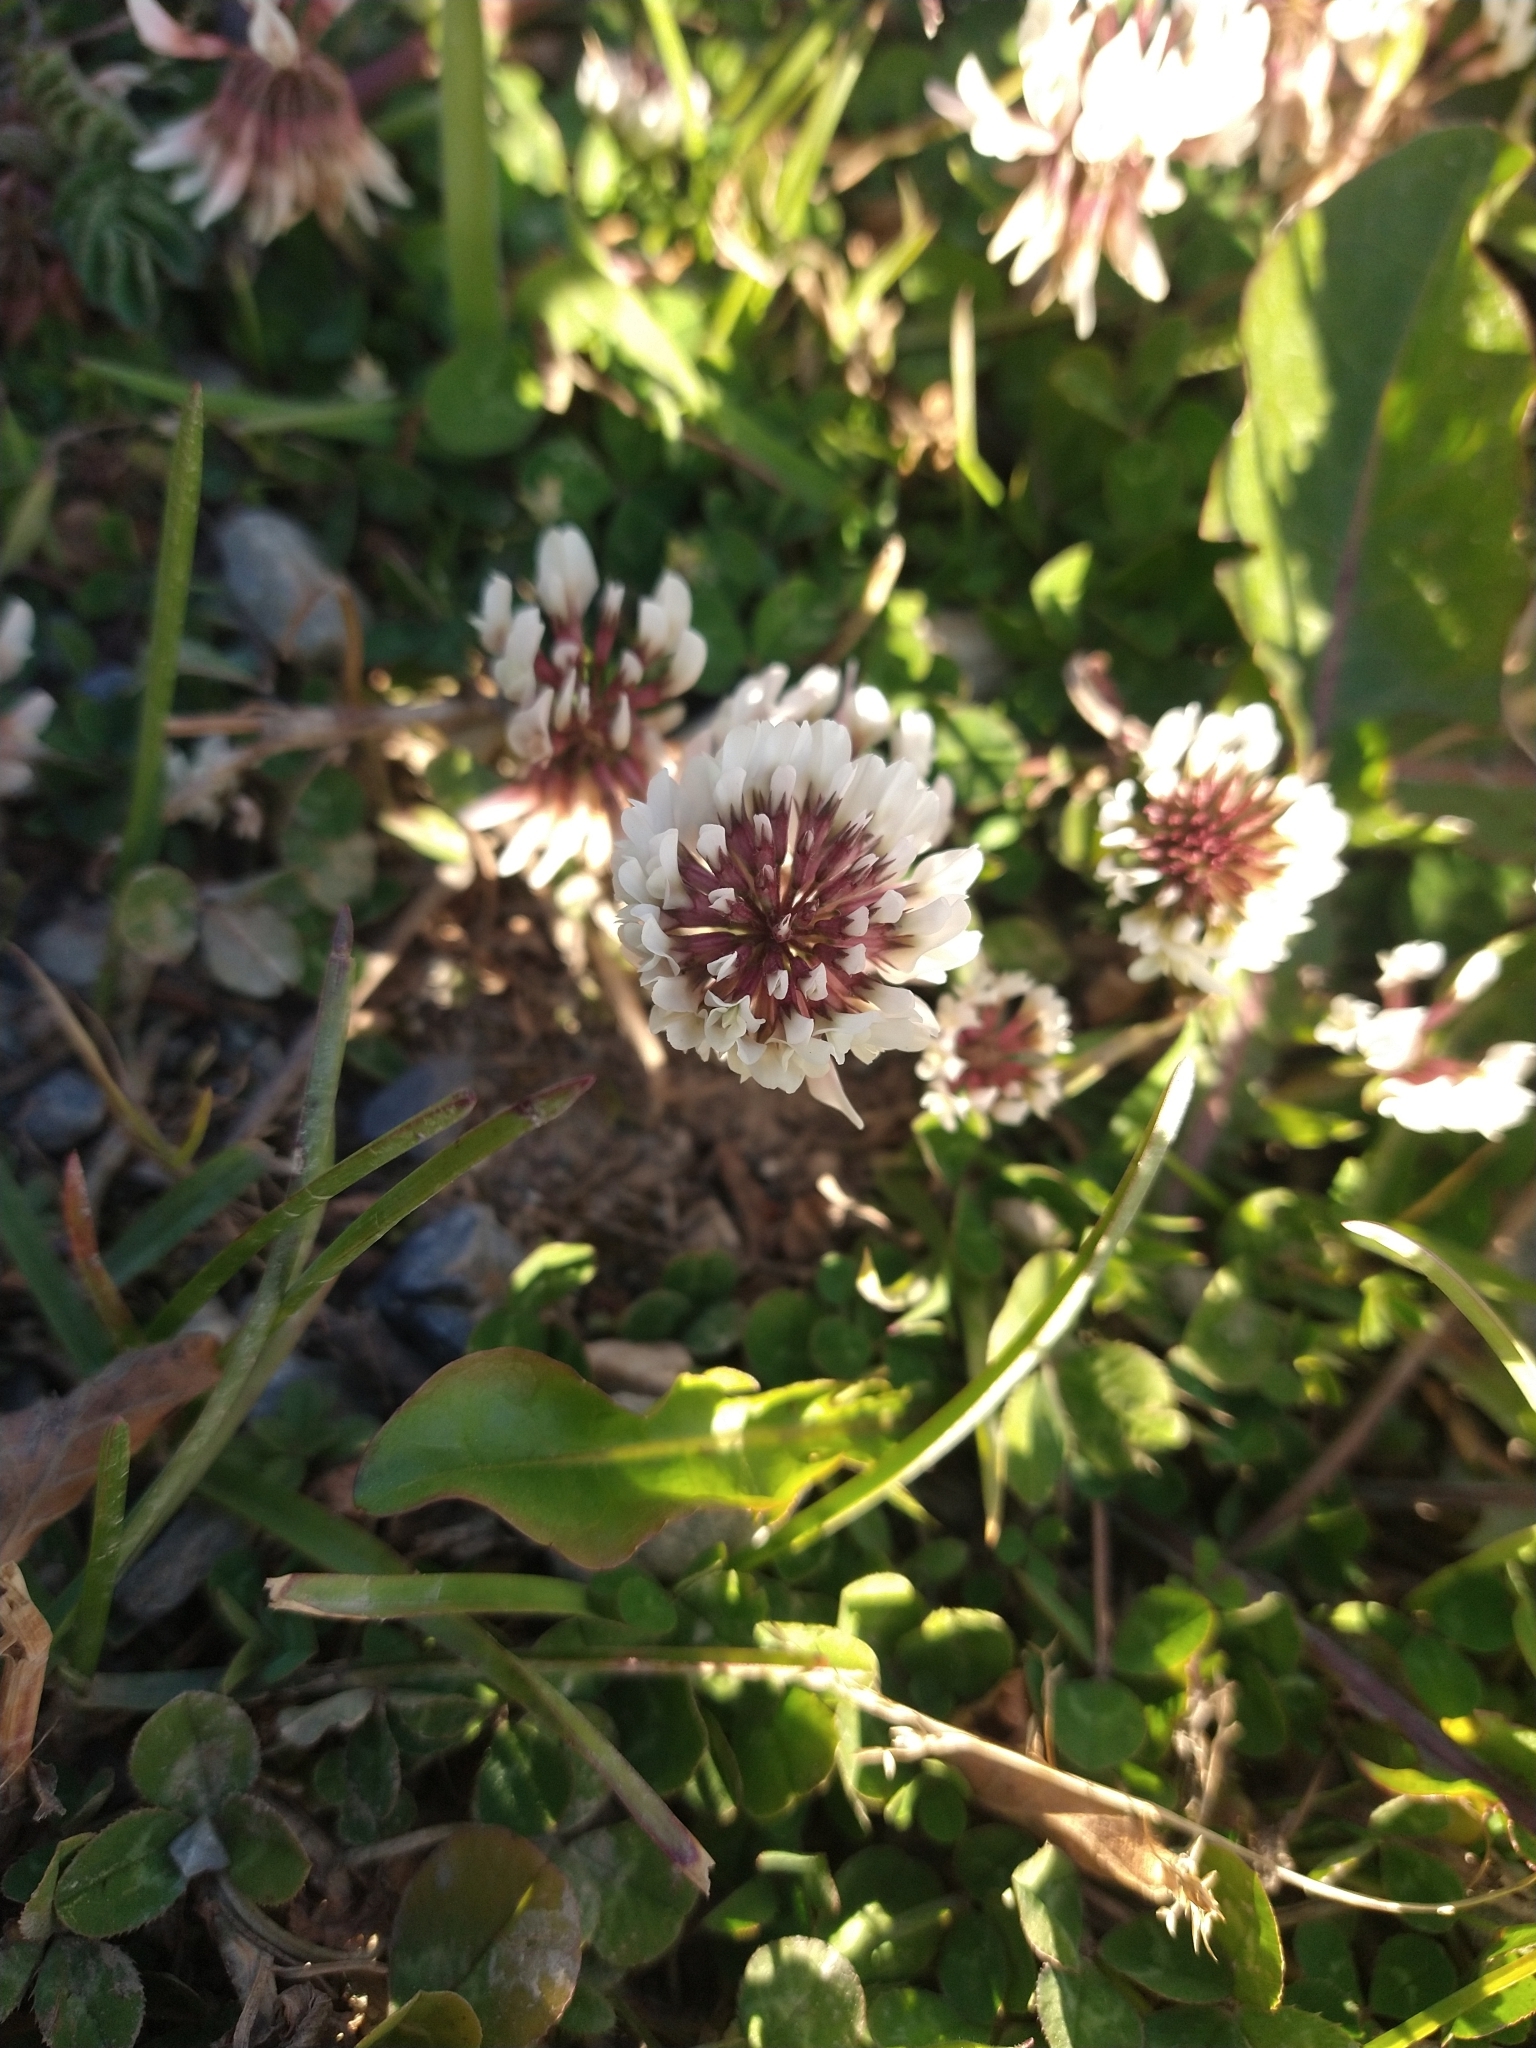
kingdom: Plantae
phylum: Tracheophyta
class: Magnoliopsida
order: Fabales
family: Fabaceae
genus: Trifolium
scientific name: Trifolium repens
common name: White clover
